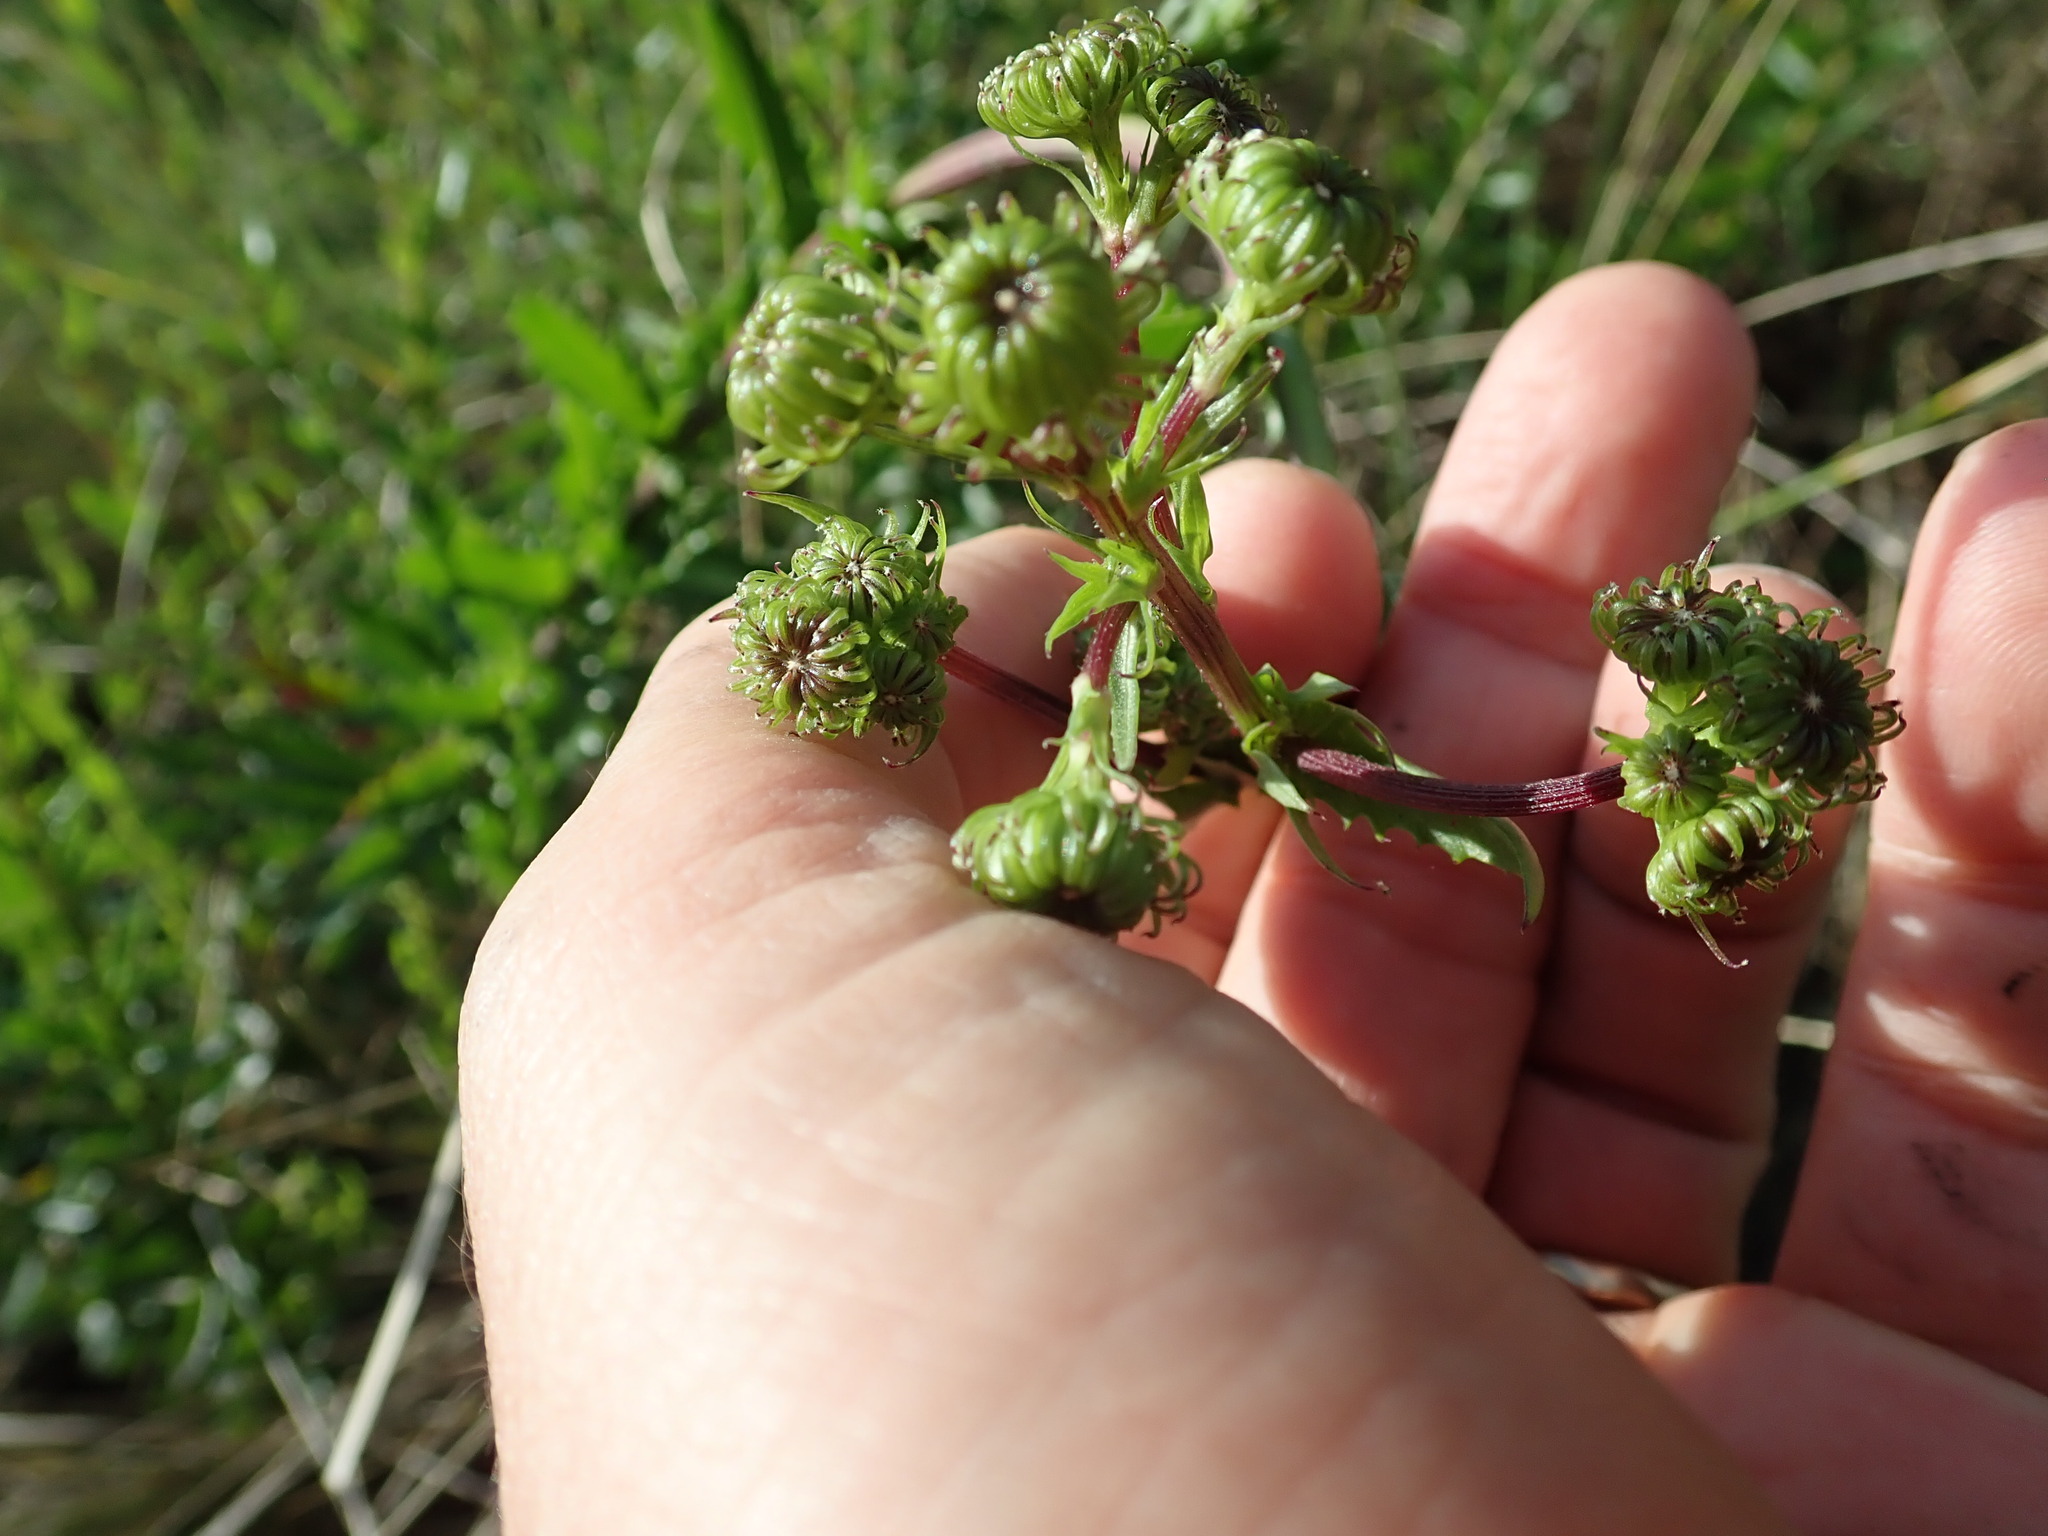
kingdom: Plantae
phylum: Tracheophyta
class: Magnoliopsida
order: Asterales
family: Asteraceae
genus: Senecio
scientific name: Senecio glastifolius
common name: Woad-leaved ragwort
